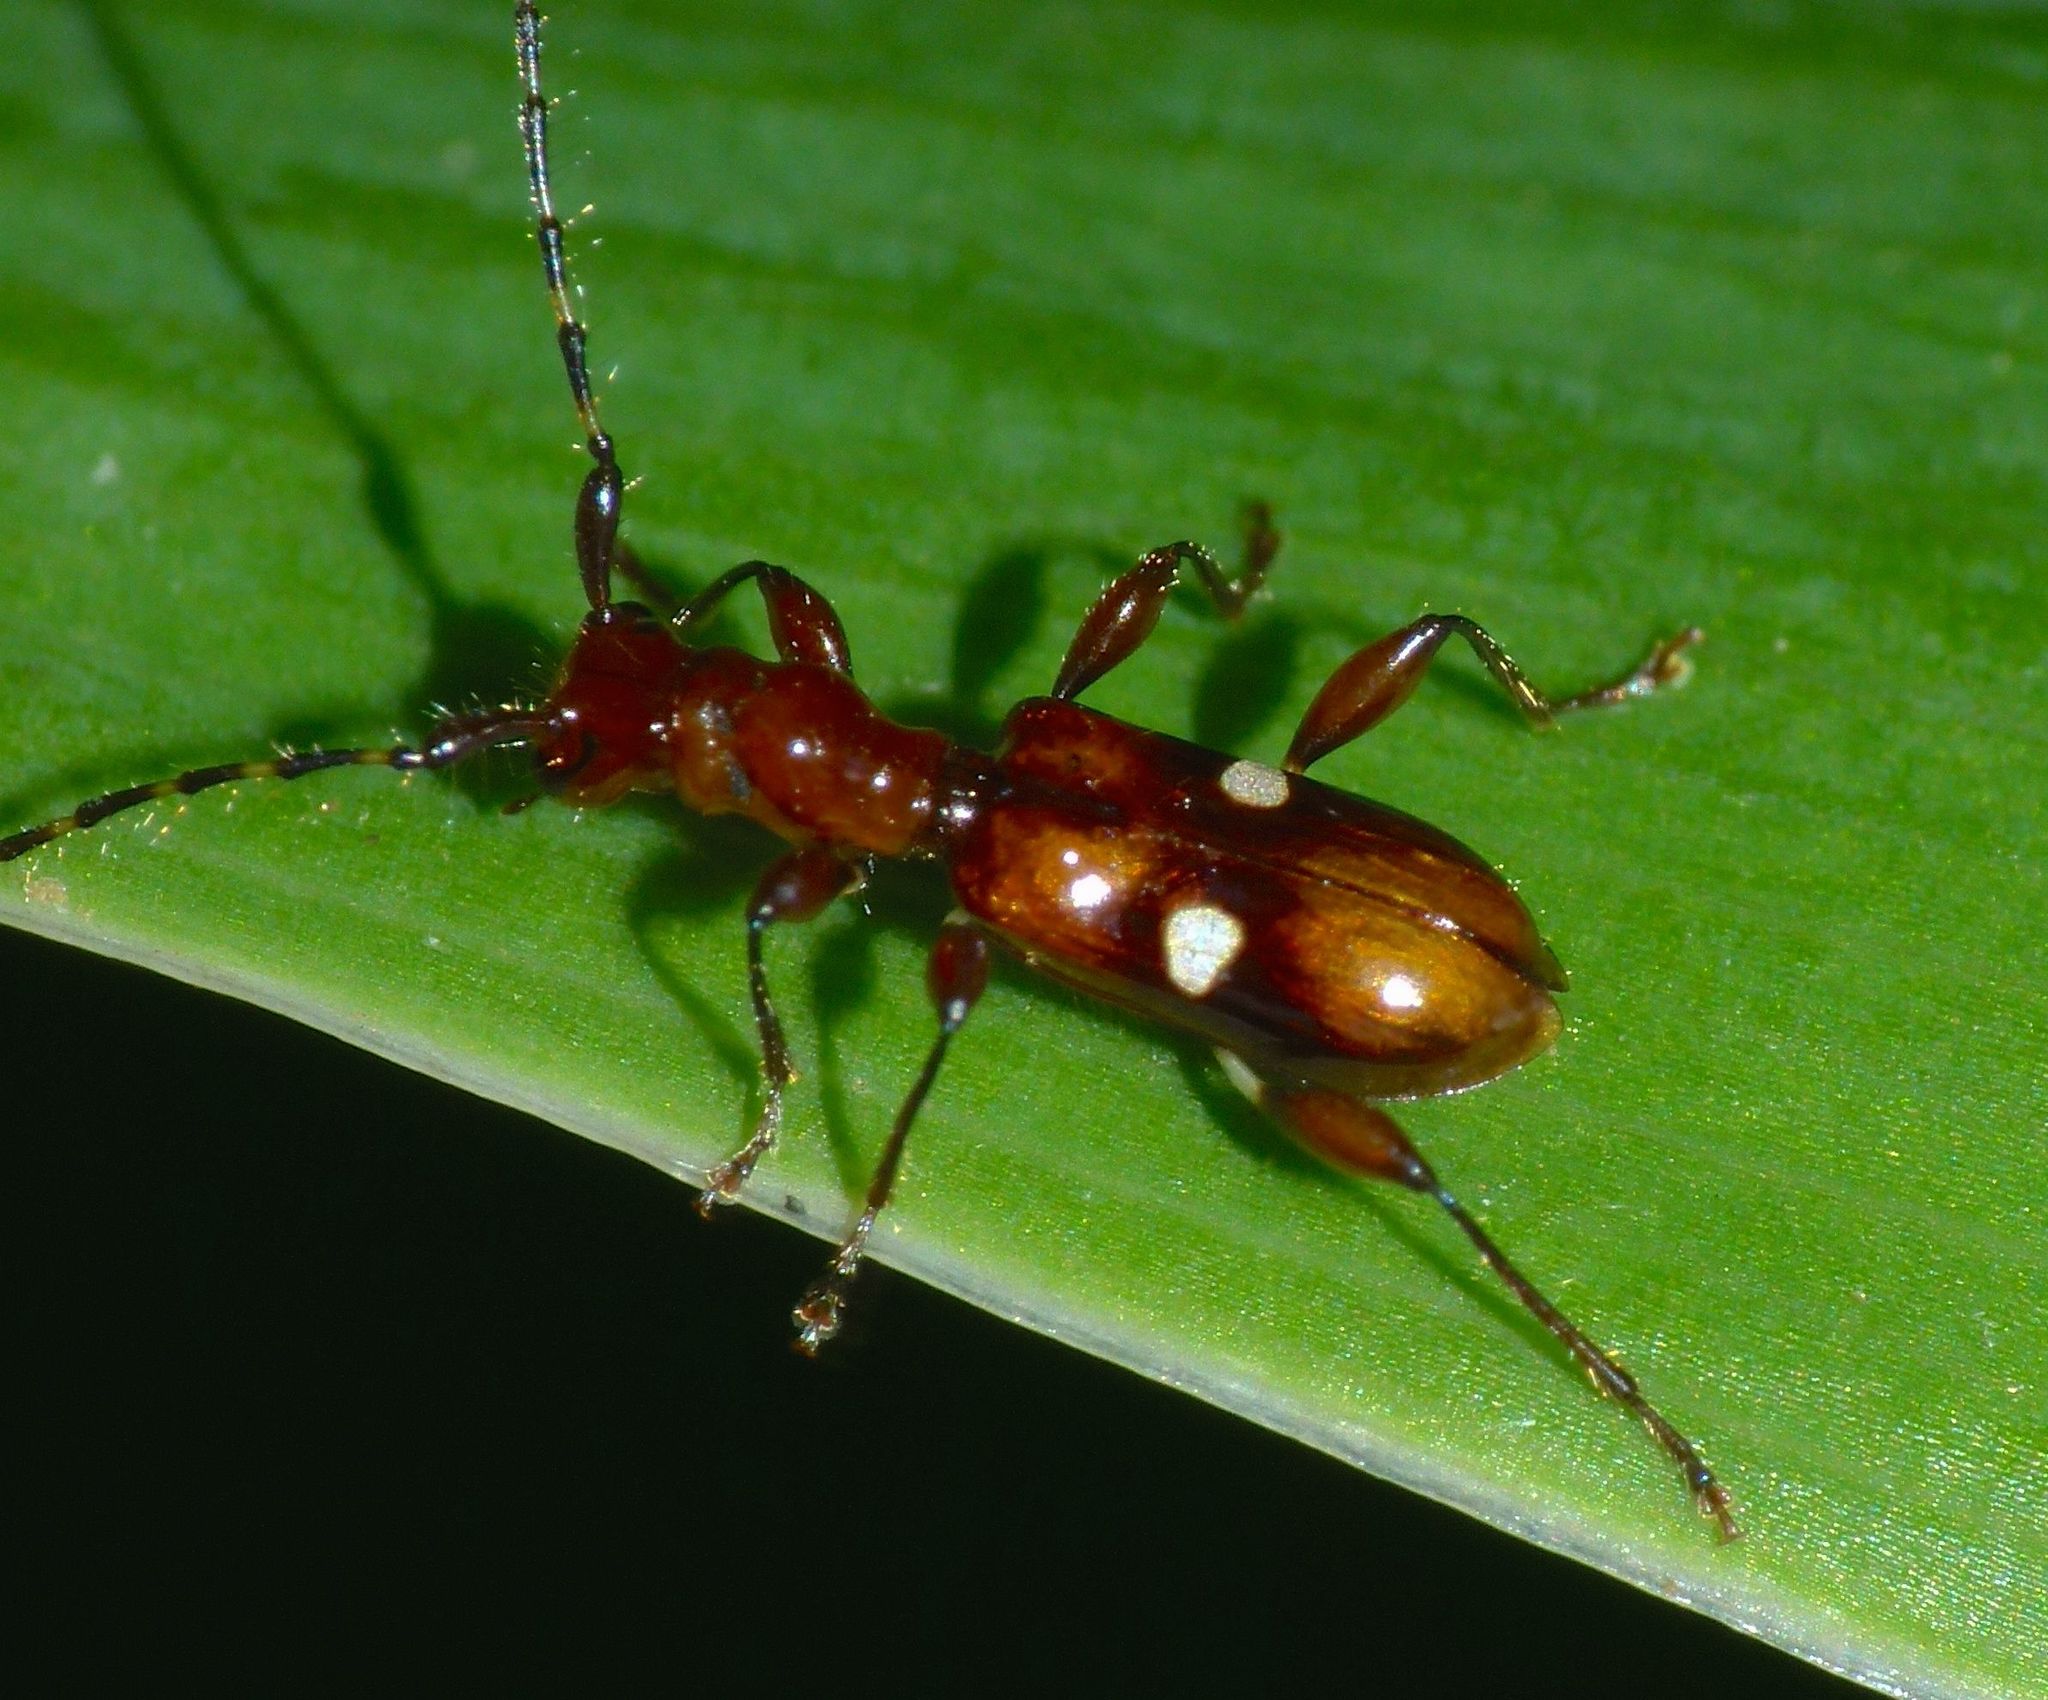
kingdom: Animalia
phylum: Arthropoda
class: Insecta
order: Coleoptera
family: Cerambycidae
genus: Zorion
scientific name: Zorion batesi
